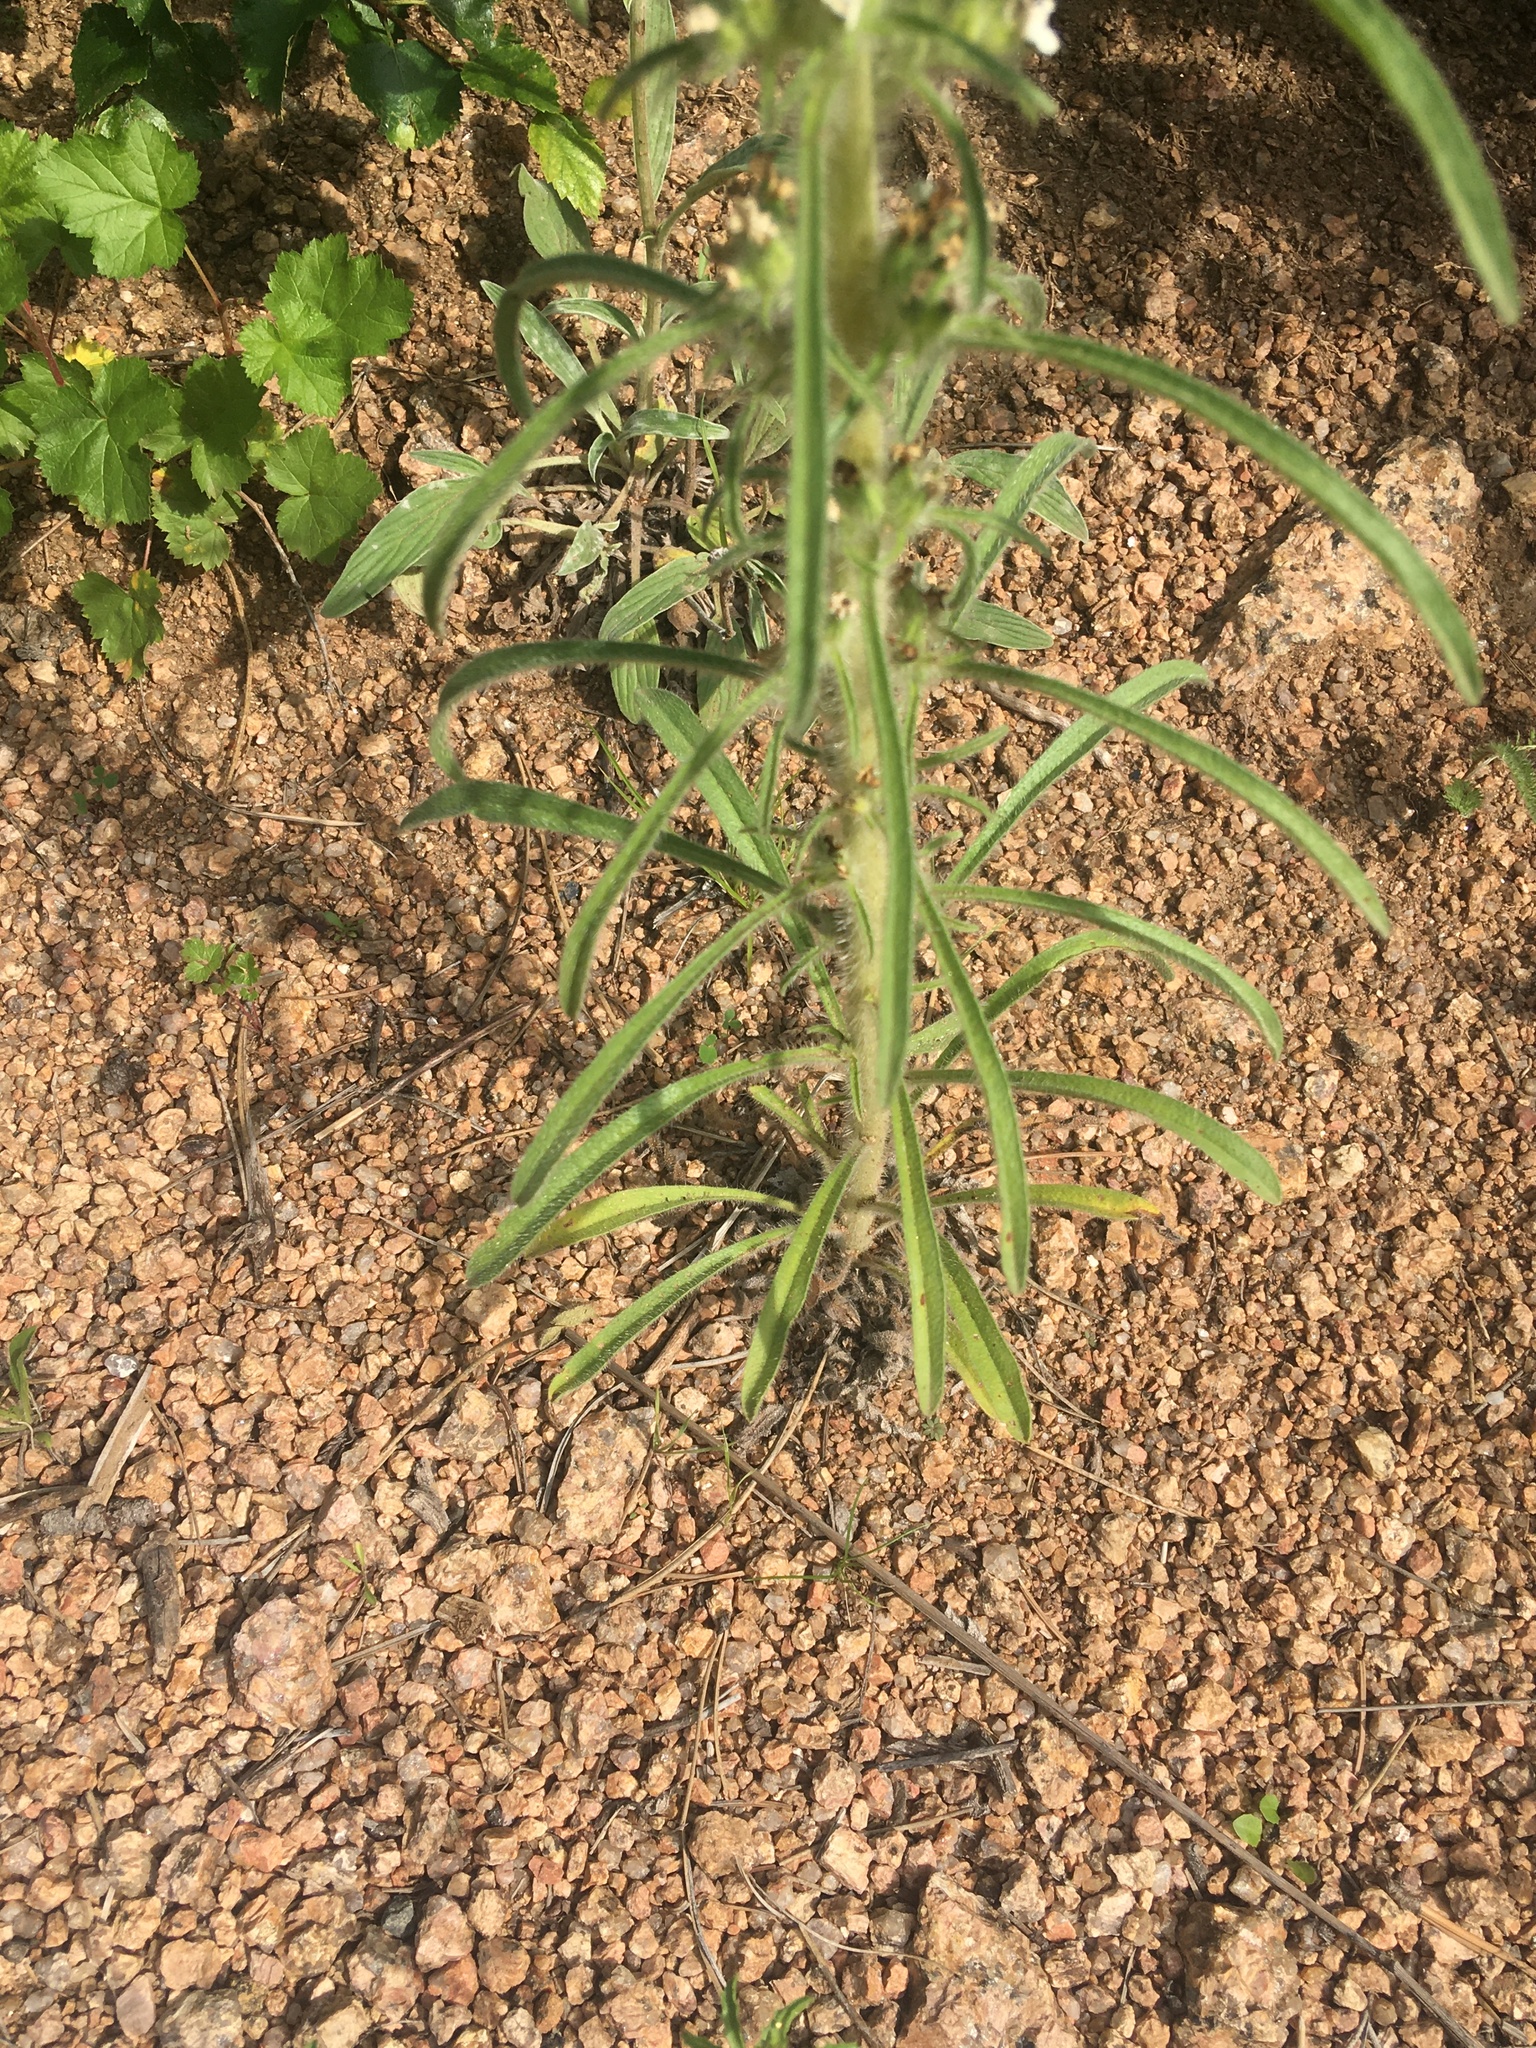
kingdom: Plantae
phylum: Tracheophyta
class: Magnoliopsida
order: Boraginales
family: Boraginaceae
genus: Oreocarya
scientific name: Oreocarya virgata
